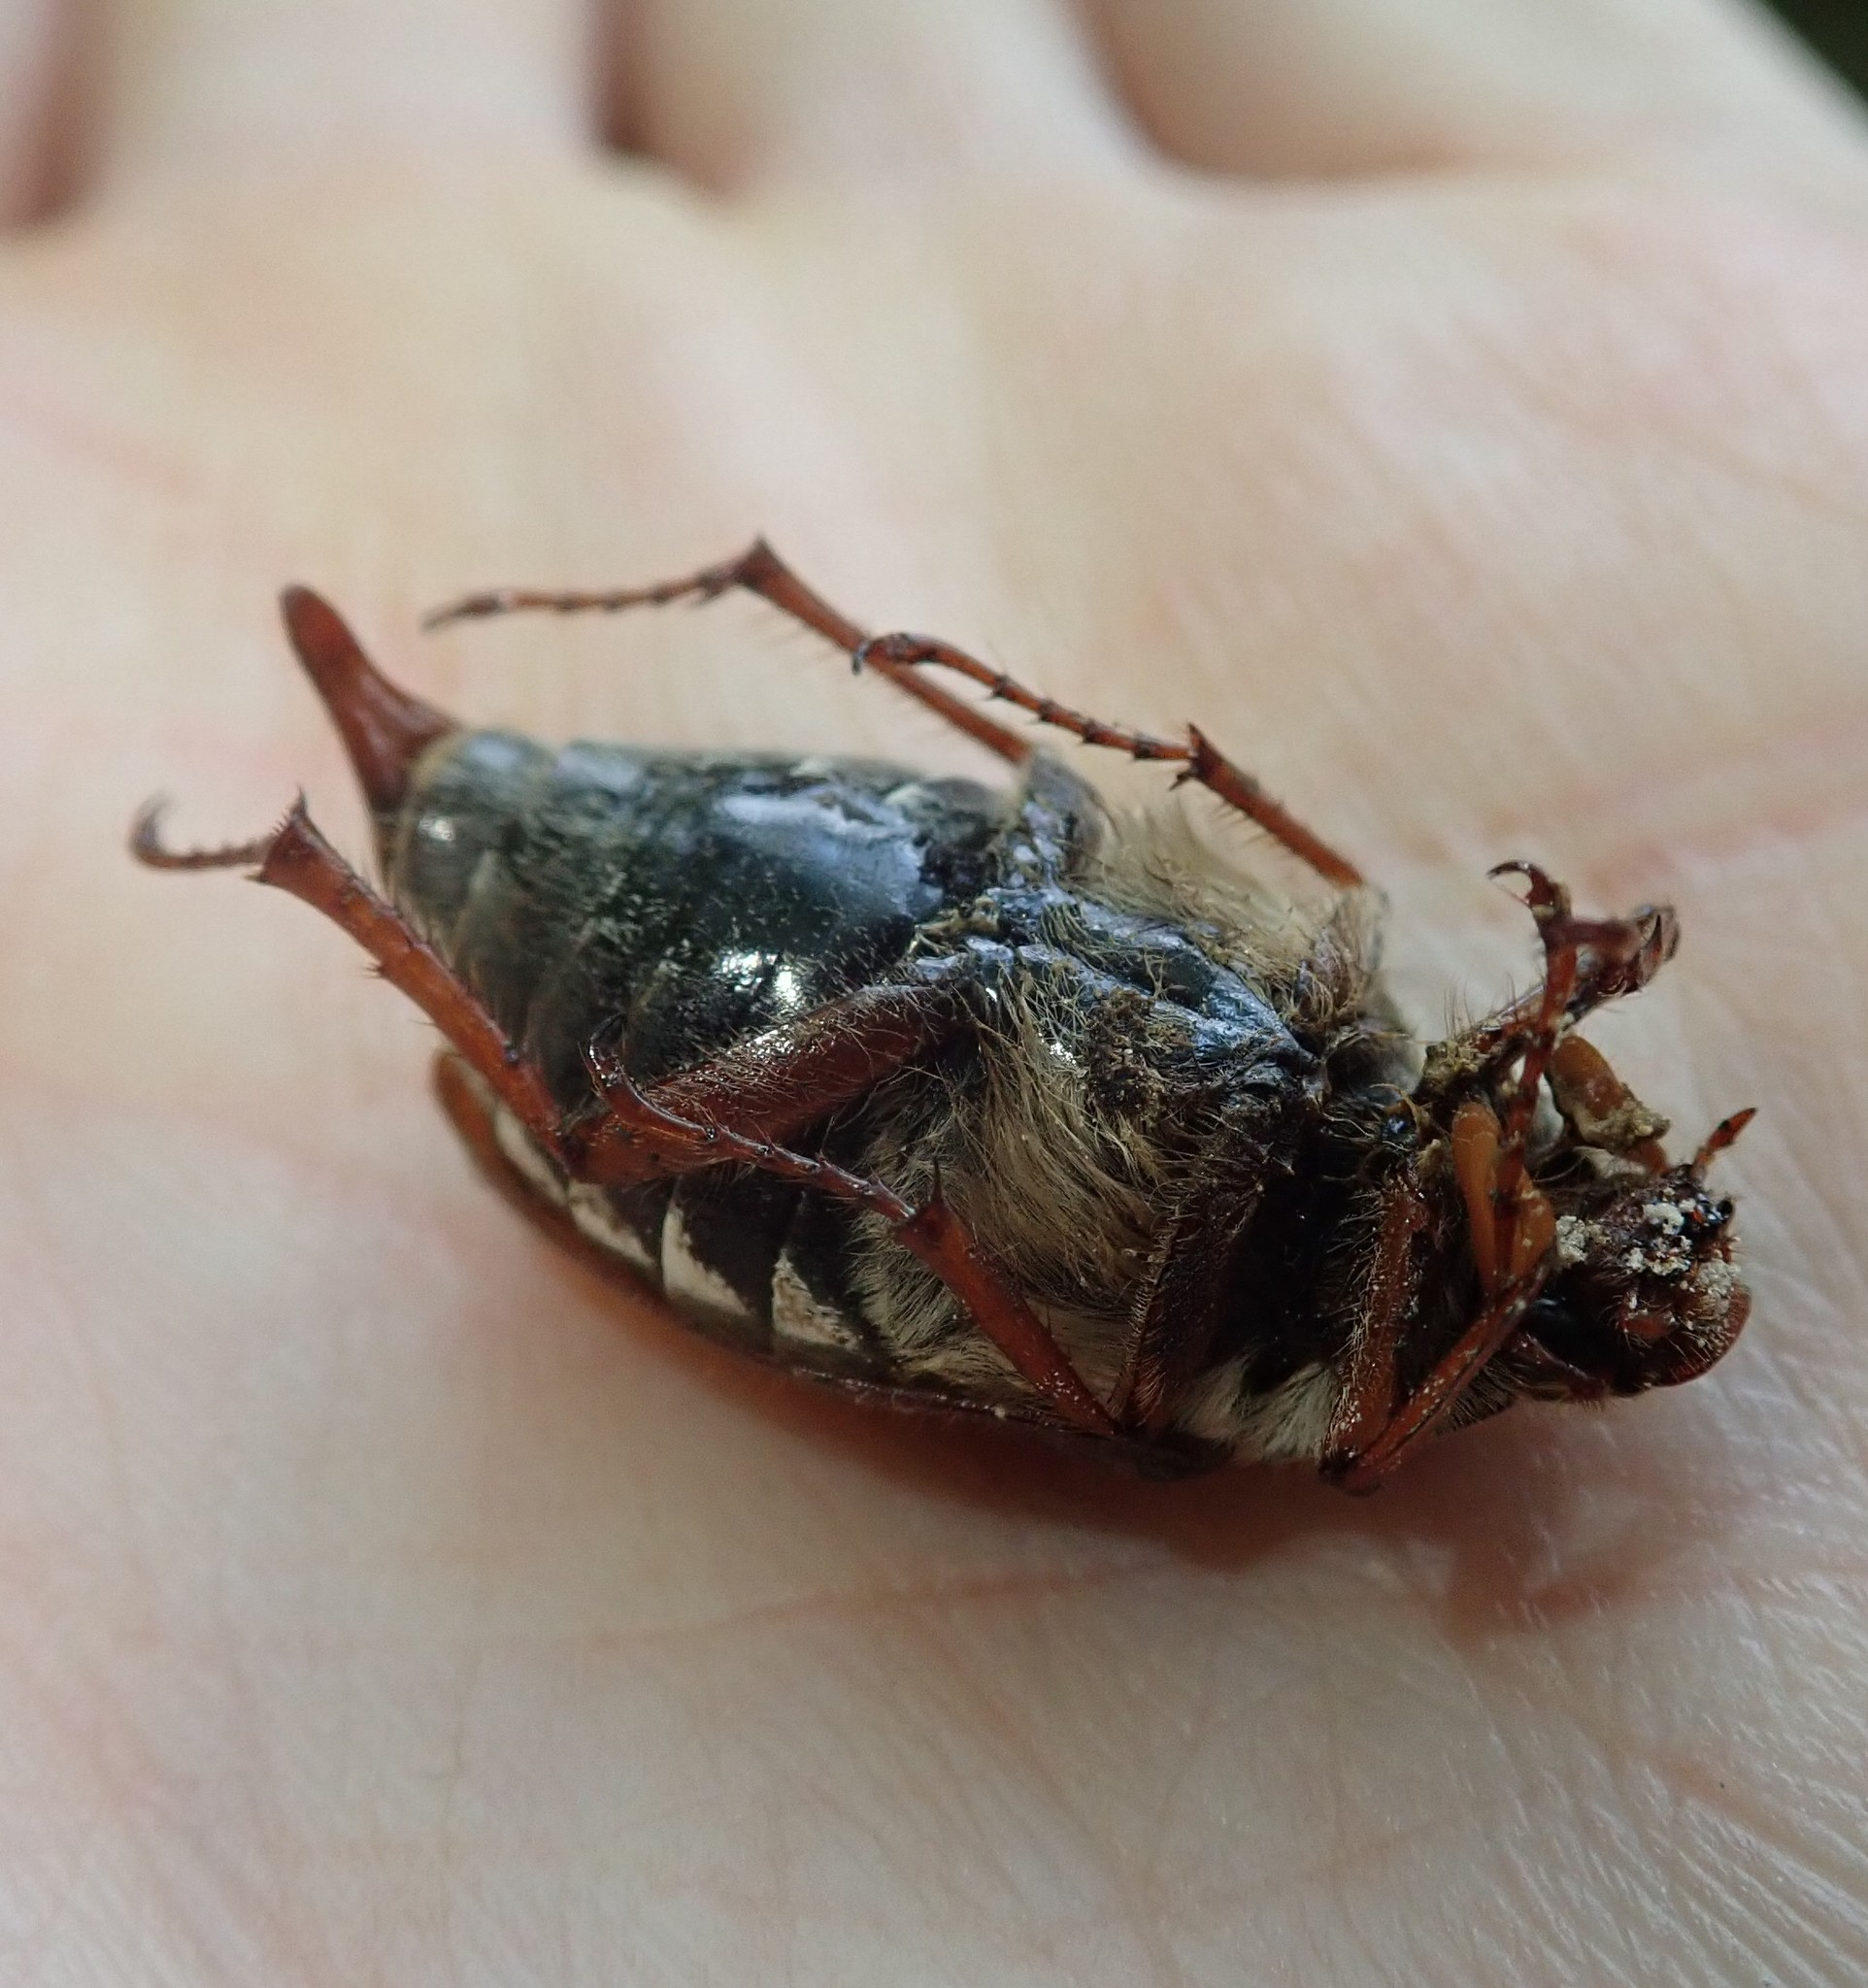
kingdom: Animalia
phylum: Arthropoda
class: Insecta
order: Coleoptera
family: Scarabaeidae
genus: Melolontha
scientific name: Melolontha melolontha
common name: Cockchafer maybeetle
